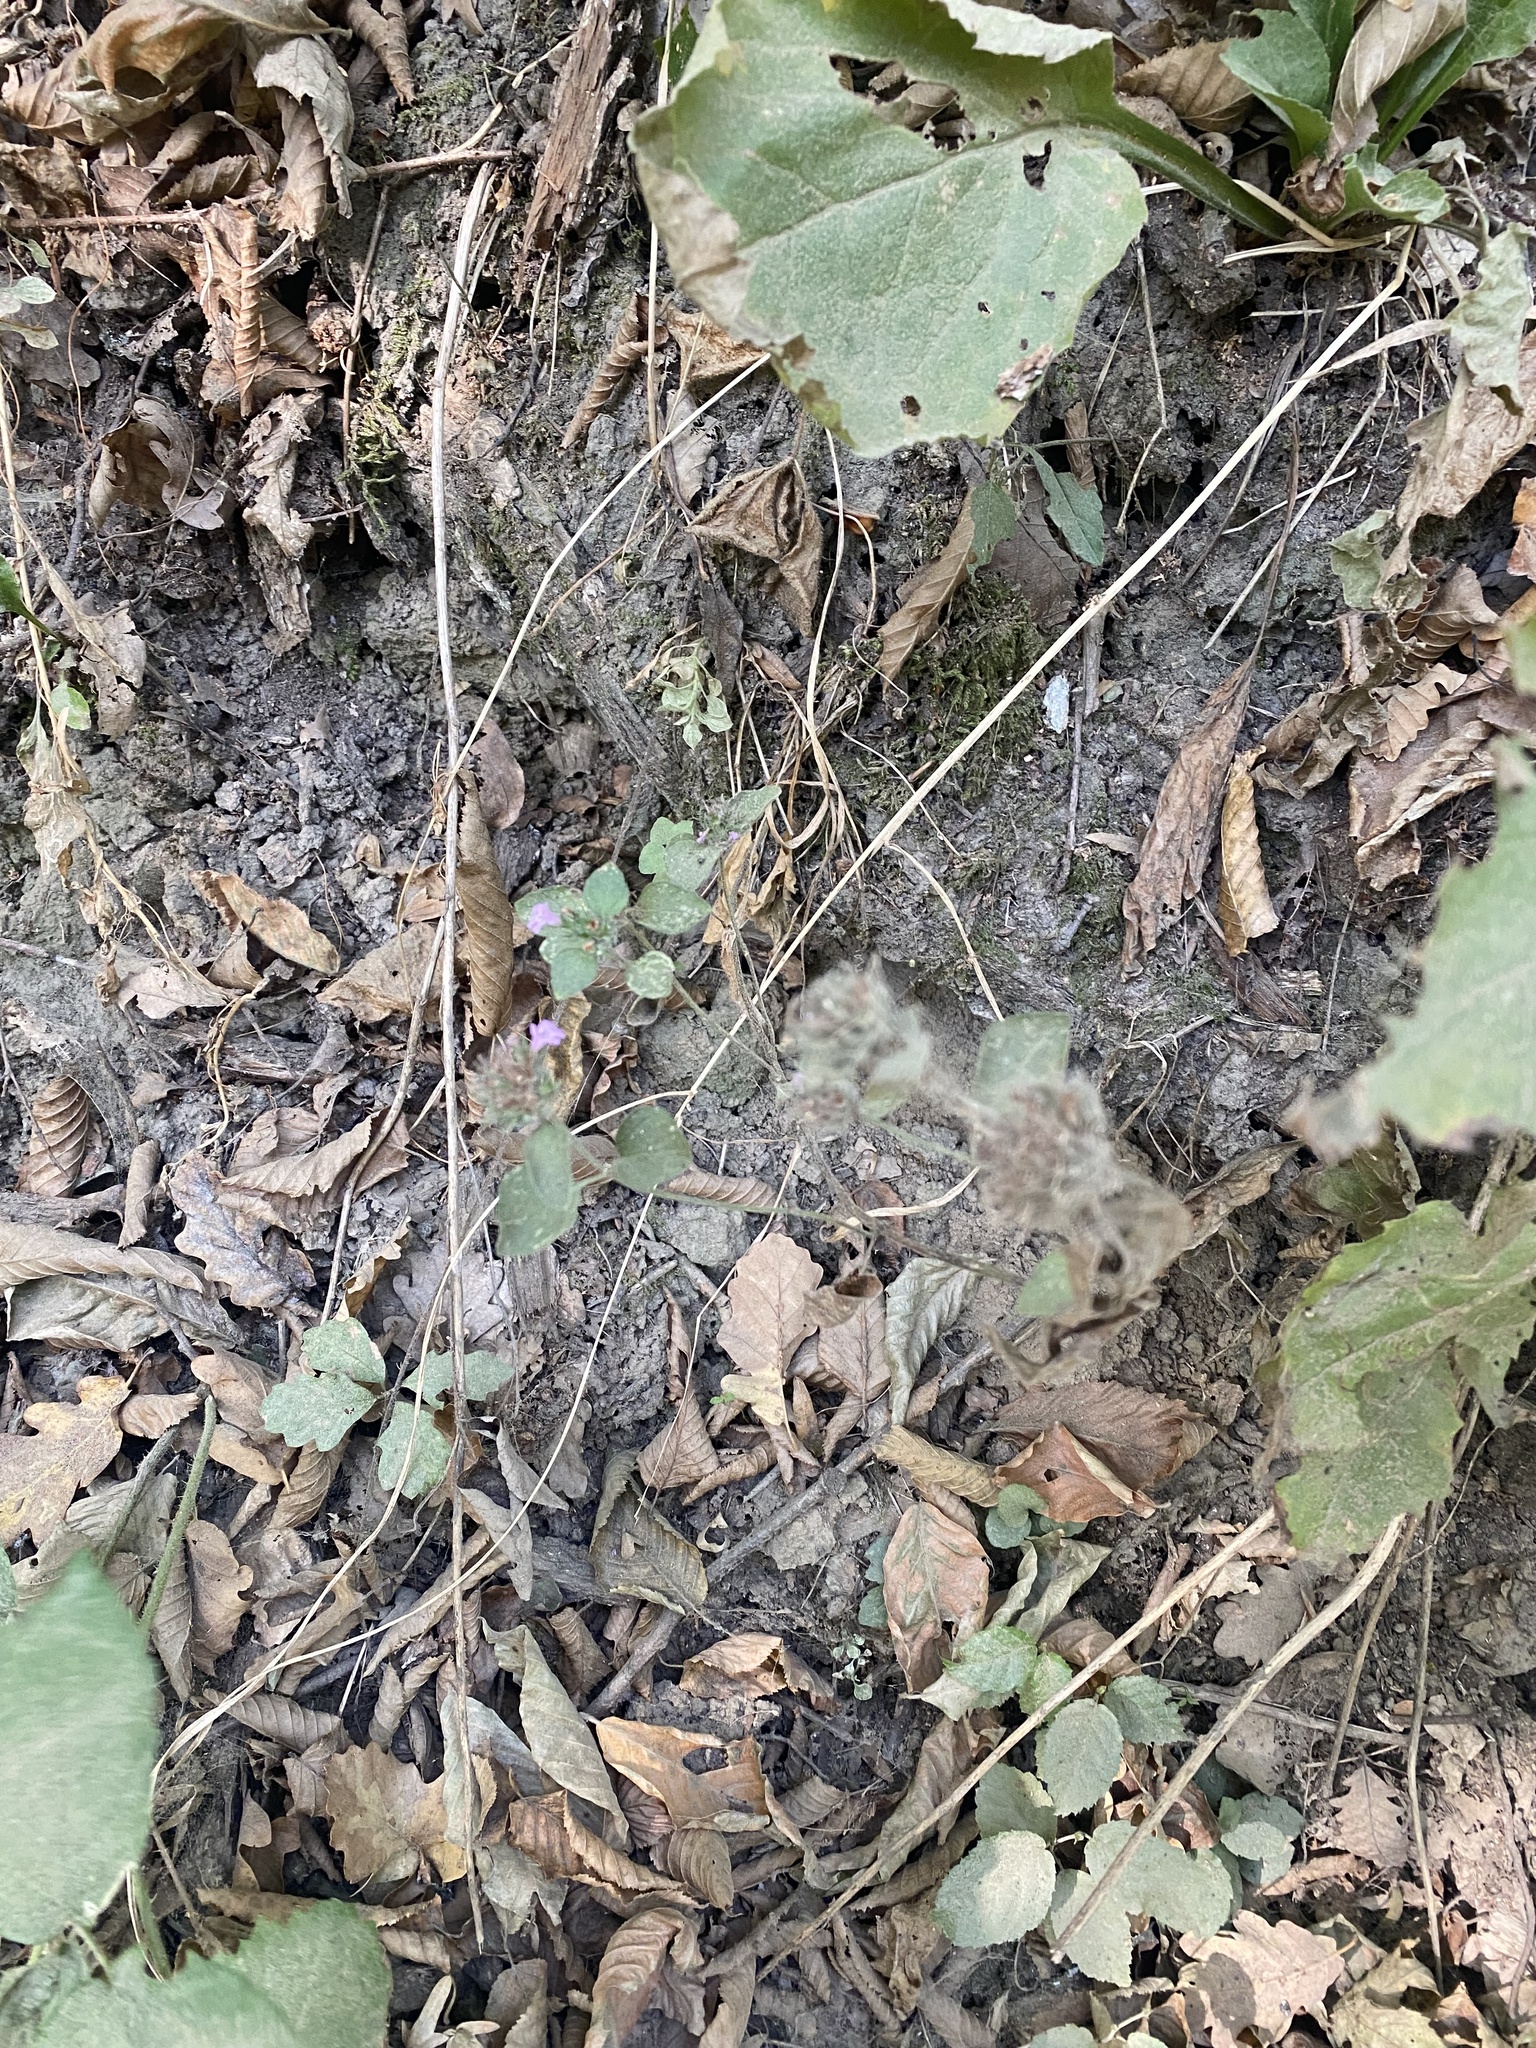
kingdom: Plantae
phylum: Tracheophyta
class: Magnoliopsida
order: Lamiales
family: Lamiaceae
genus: Clinopodium
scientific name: Clinopodium caucasicum
